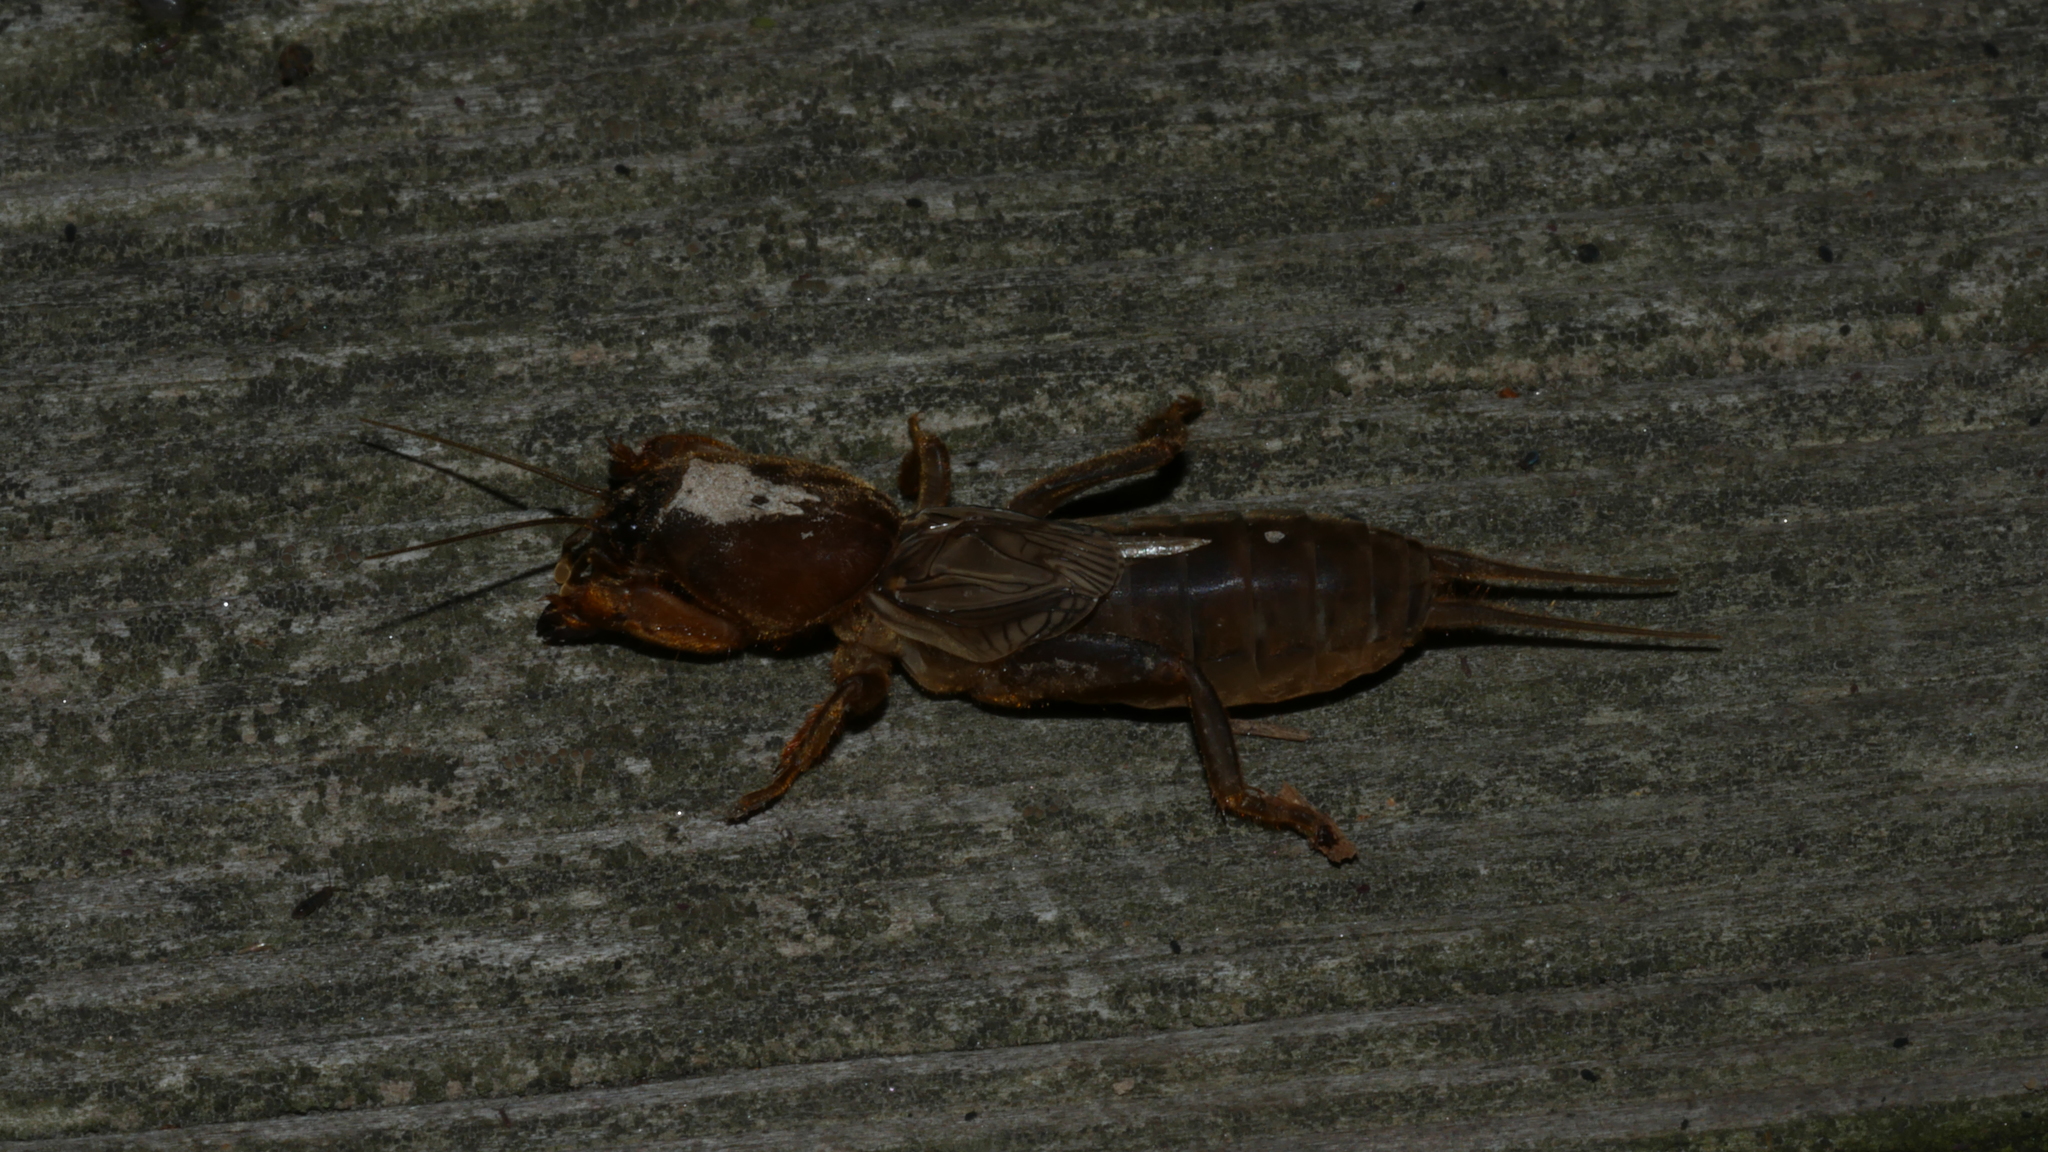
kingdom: Animalia
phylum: Arthropoda
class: Insecta
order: Orthoptera
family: Gryllotalpidae
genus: Neocurtilla
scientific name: Neocurtilla hexadactyla
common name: Northern mole cricket
